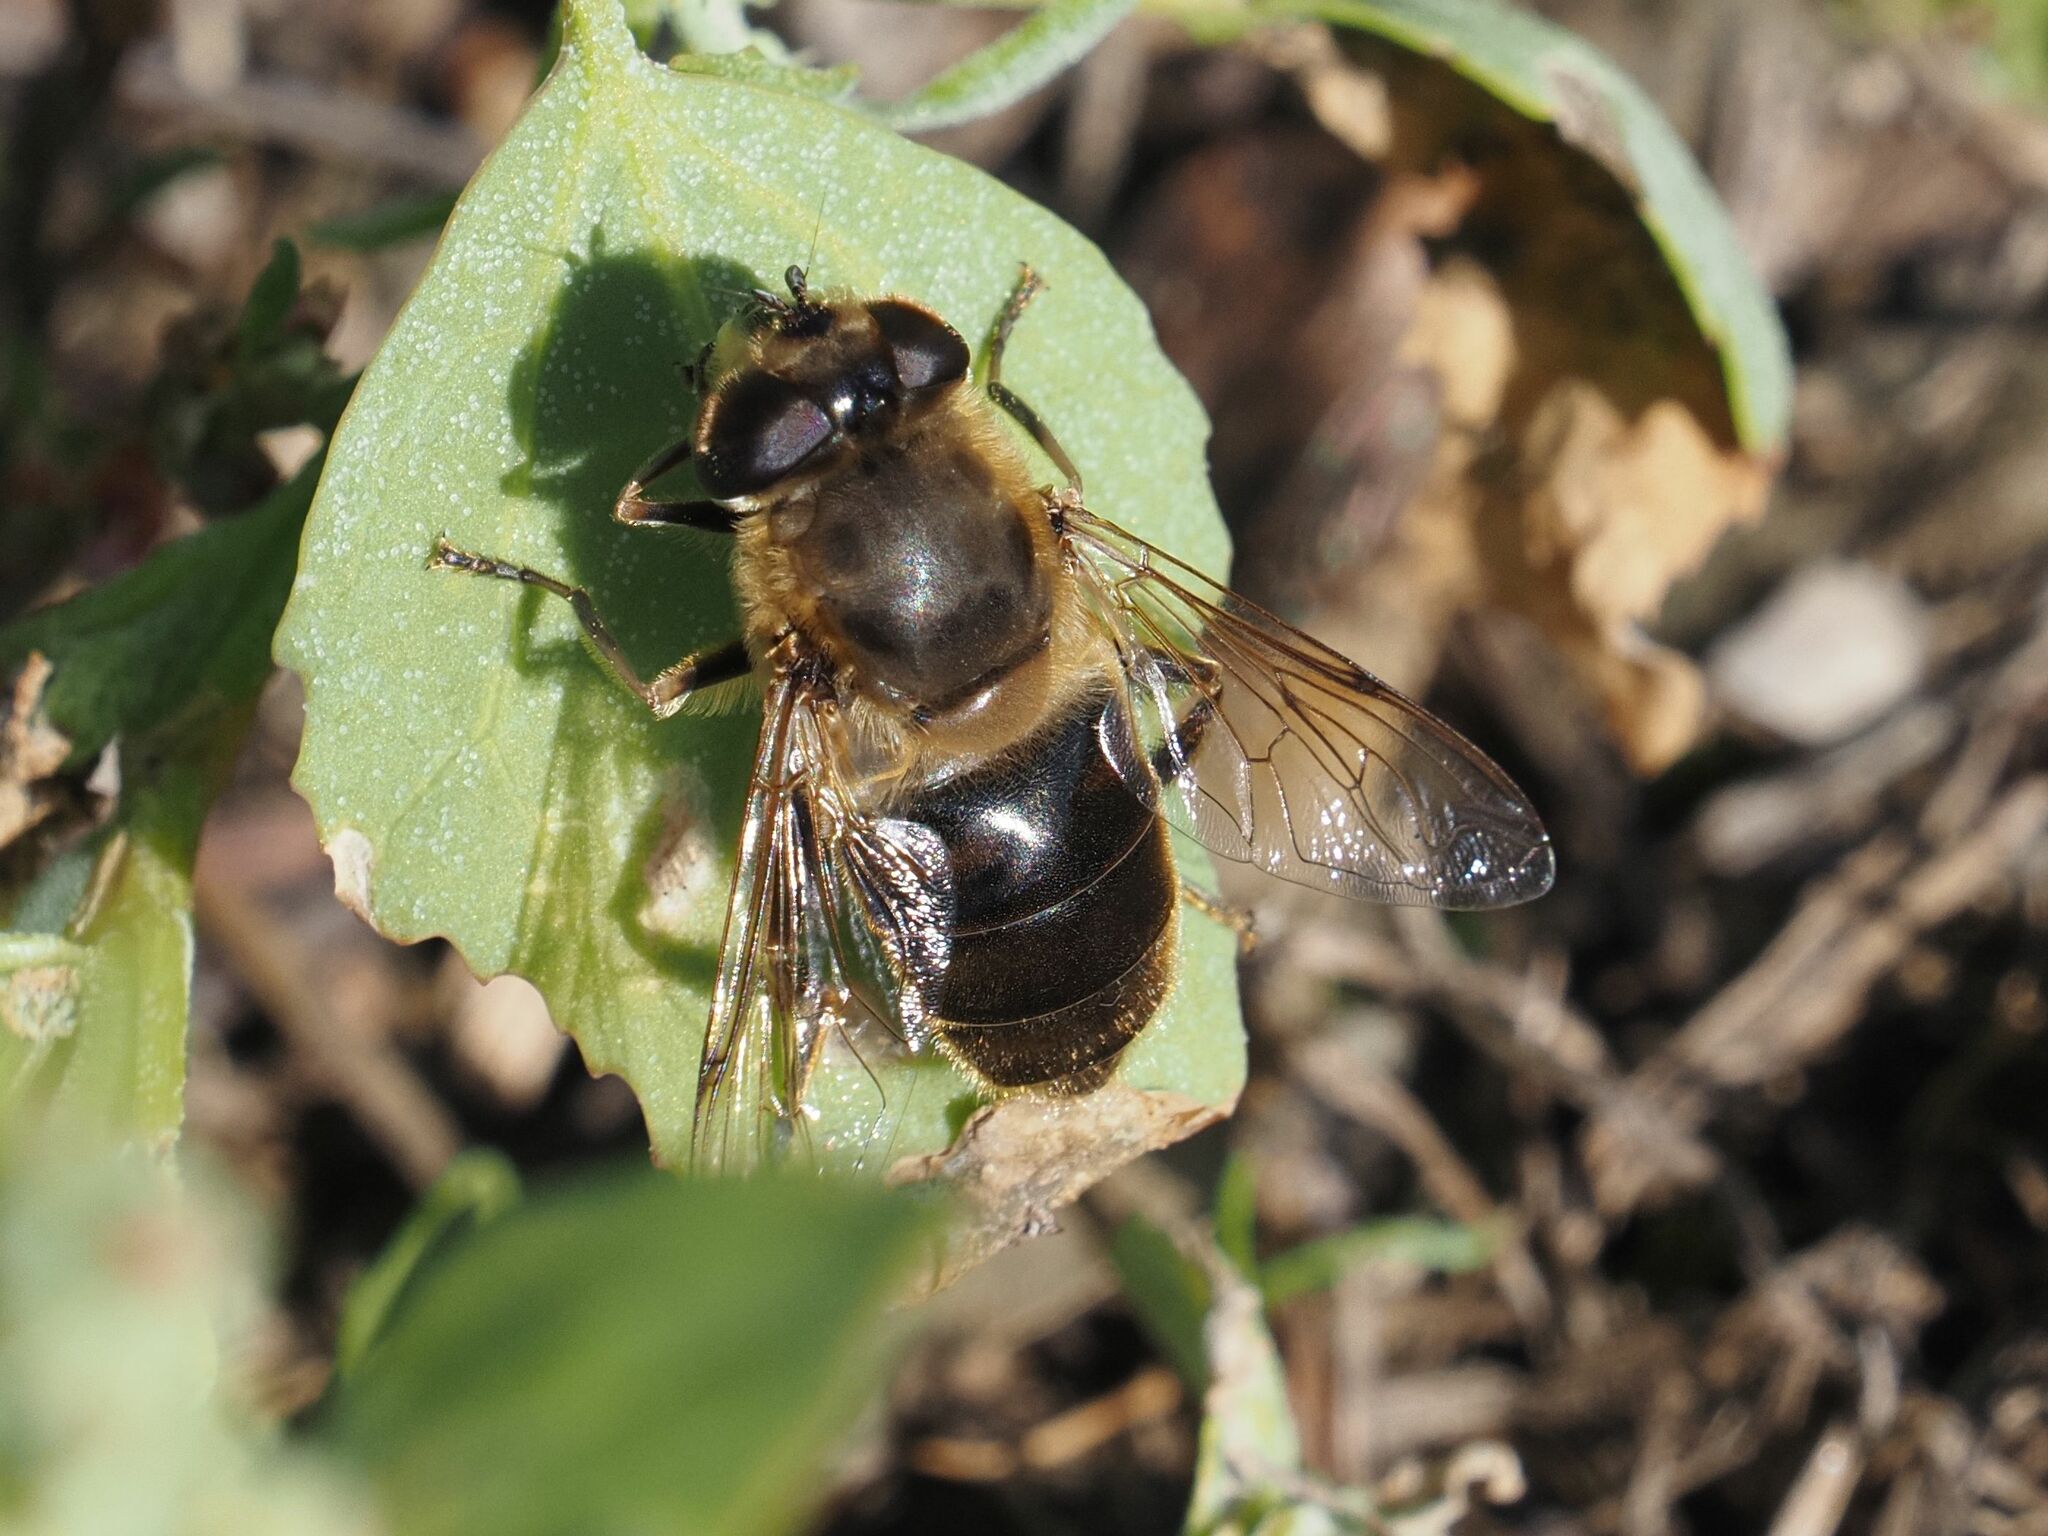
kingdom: Animalia
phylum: Arthropoda
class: Insecta
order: Diptera
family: Syrphidae
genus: Eristalis
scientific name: Eristalis tenax
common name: Drone fly
